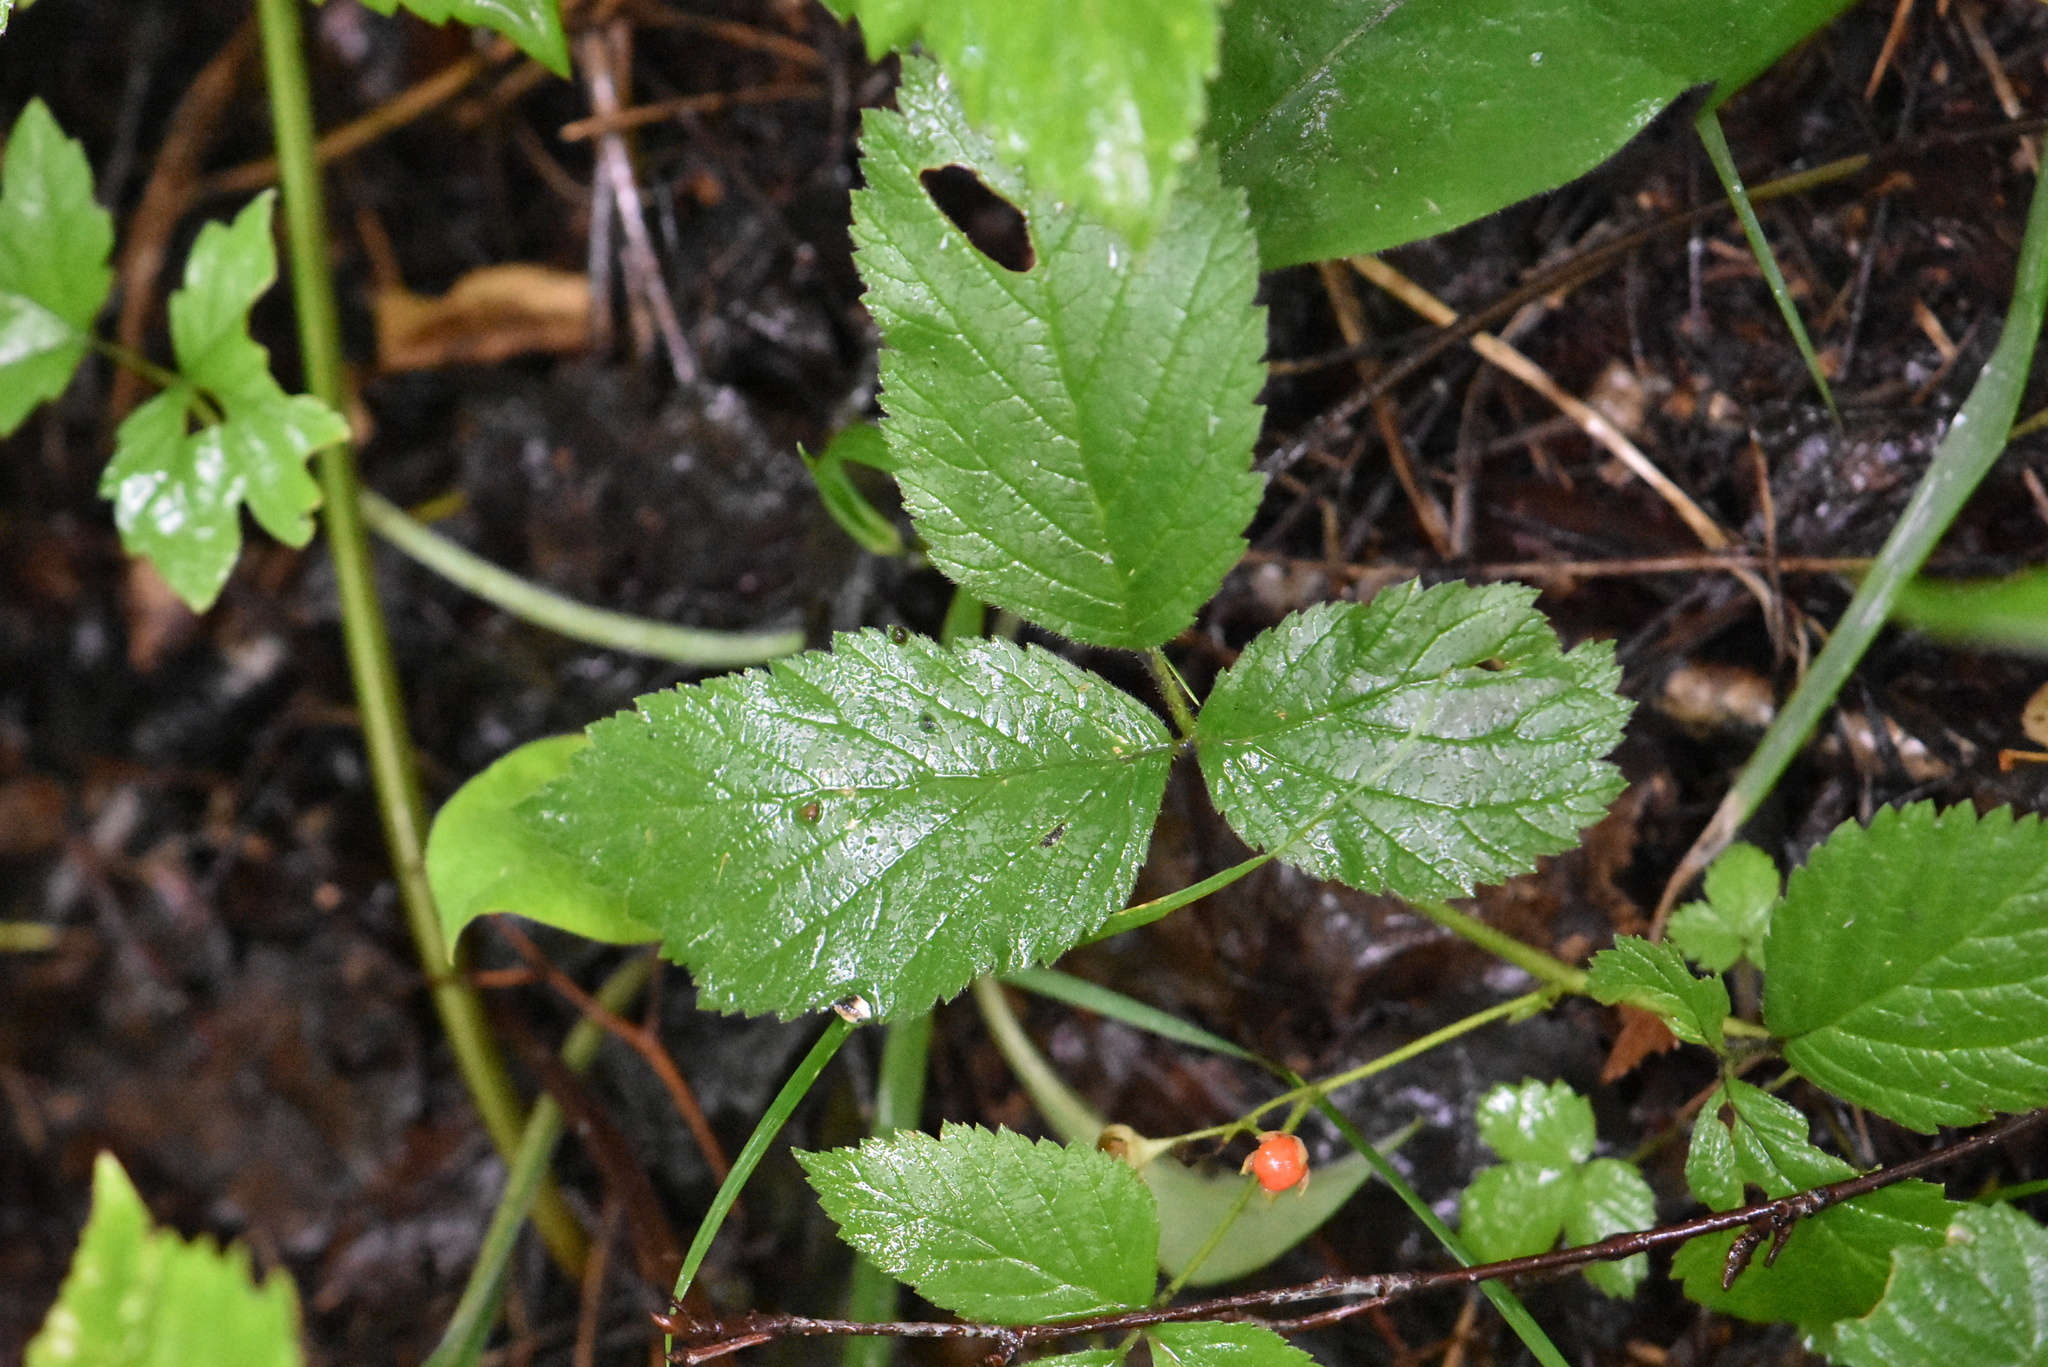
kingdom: Plantae
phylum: Tracheophyta
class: Magnoliopsida
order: Rosales
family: Rosaceae
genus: Rubus
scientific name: Rubus saxatilis
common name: Stone bramble
